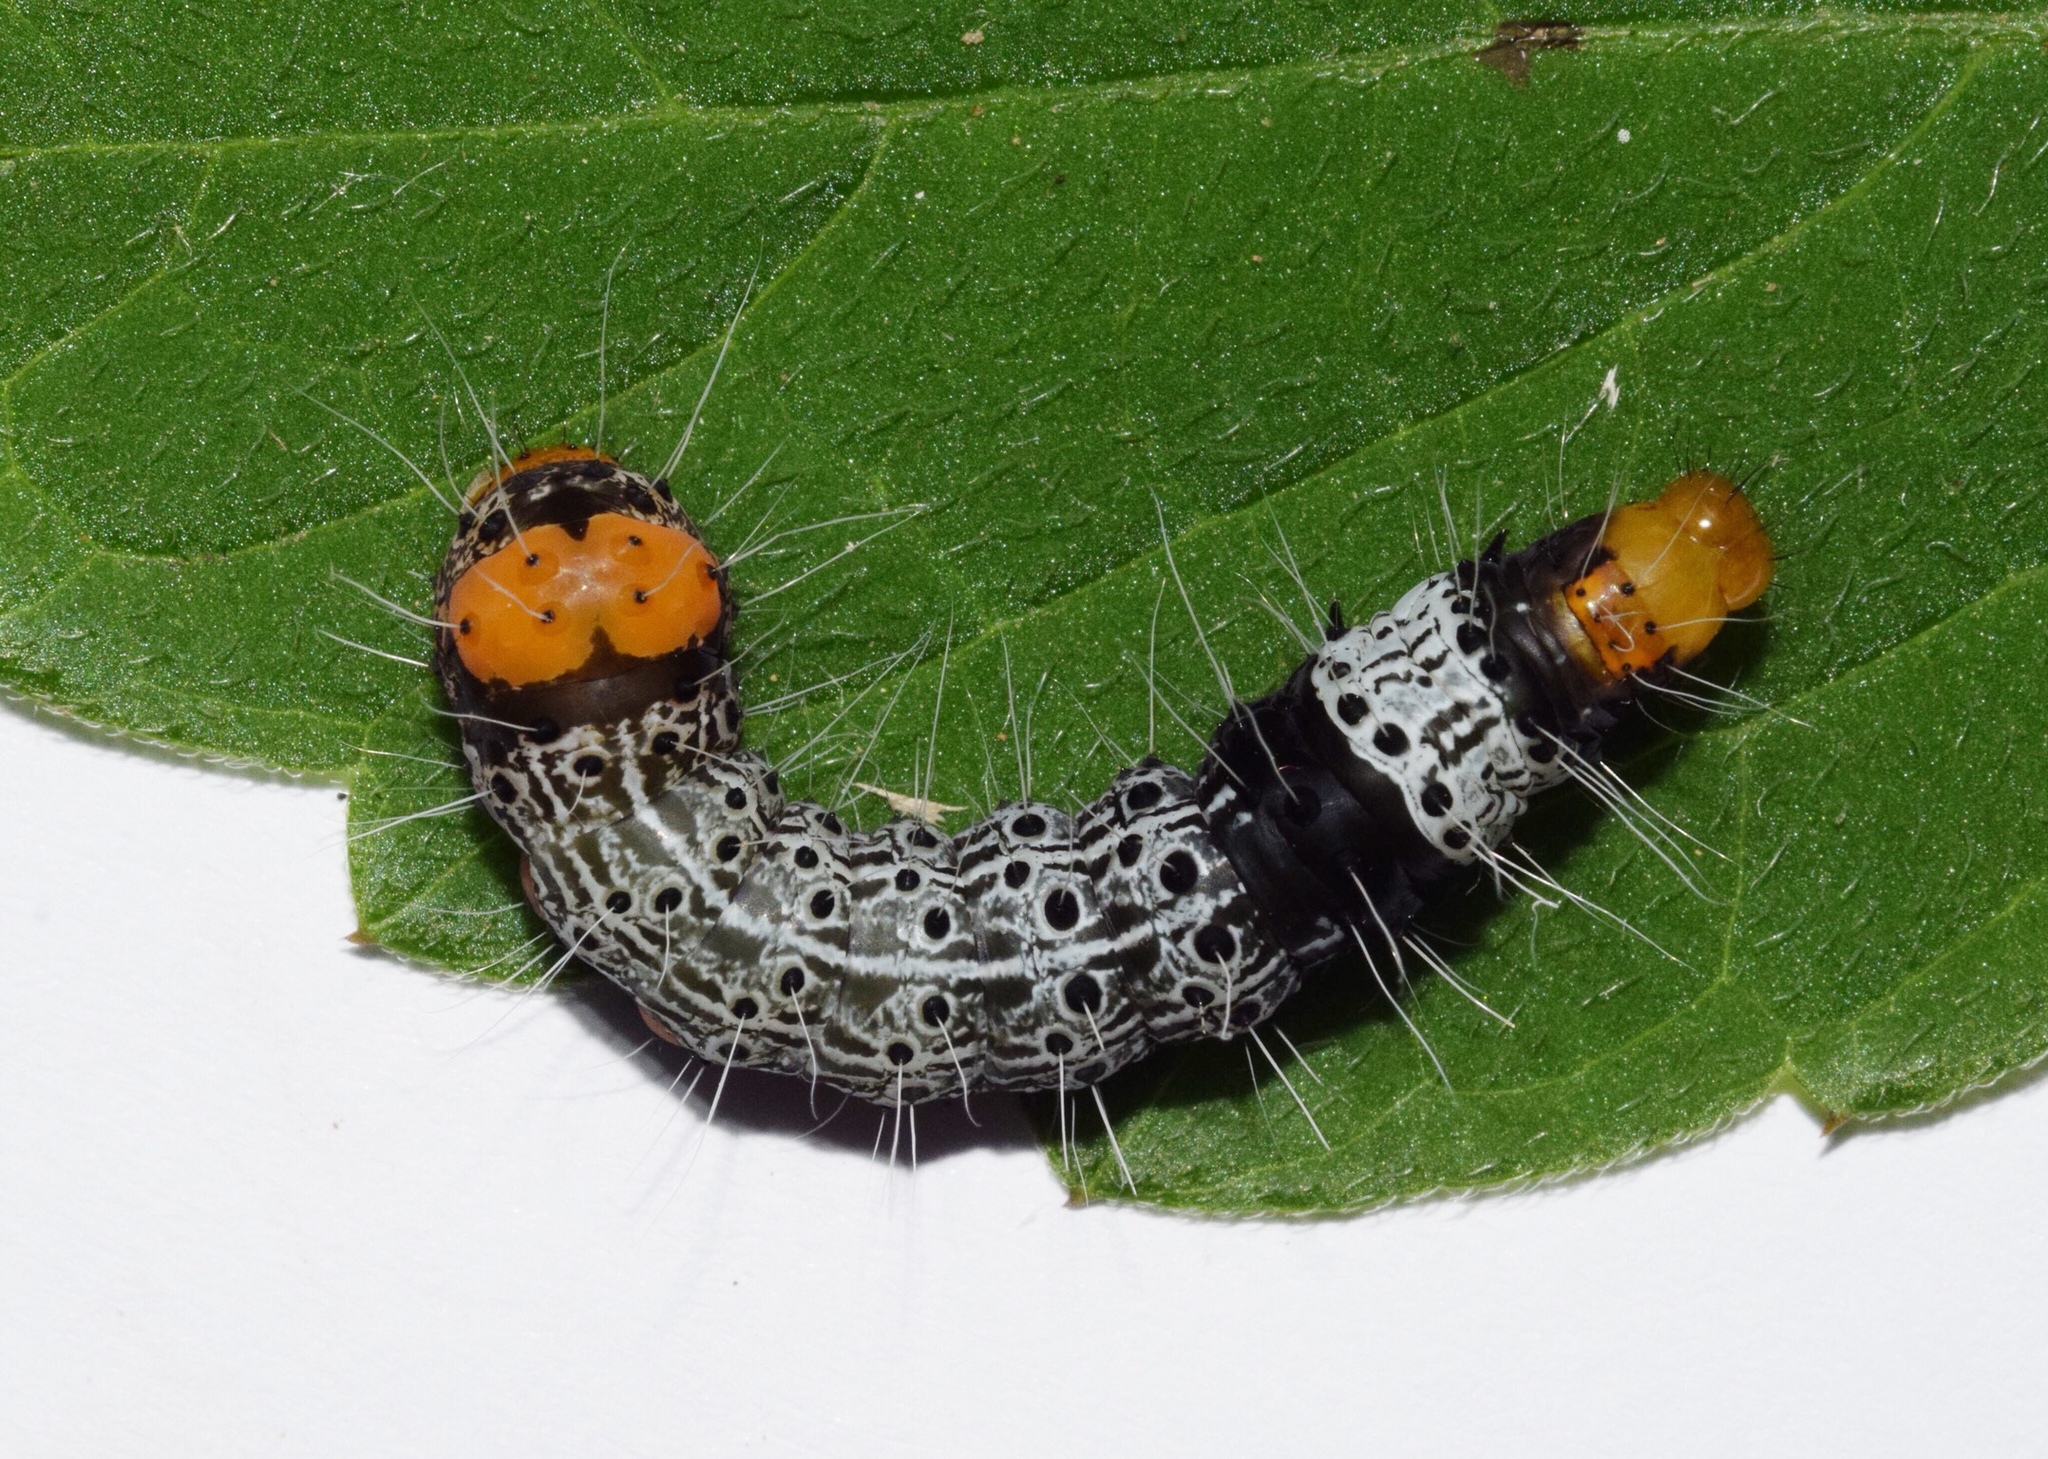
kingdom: Animalia
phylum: Arthropoda
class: Insecta
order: Lepidoptera
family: Noctuidae
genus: Heraclia
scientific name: Heraclia africana
